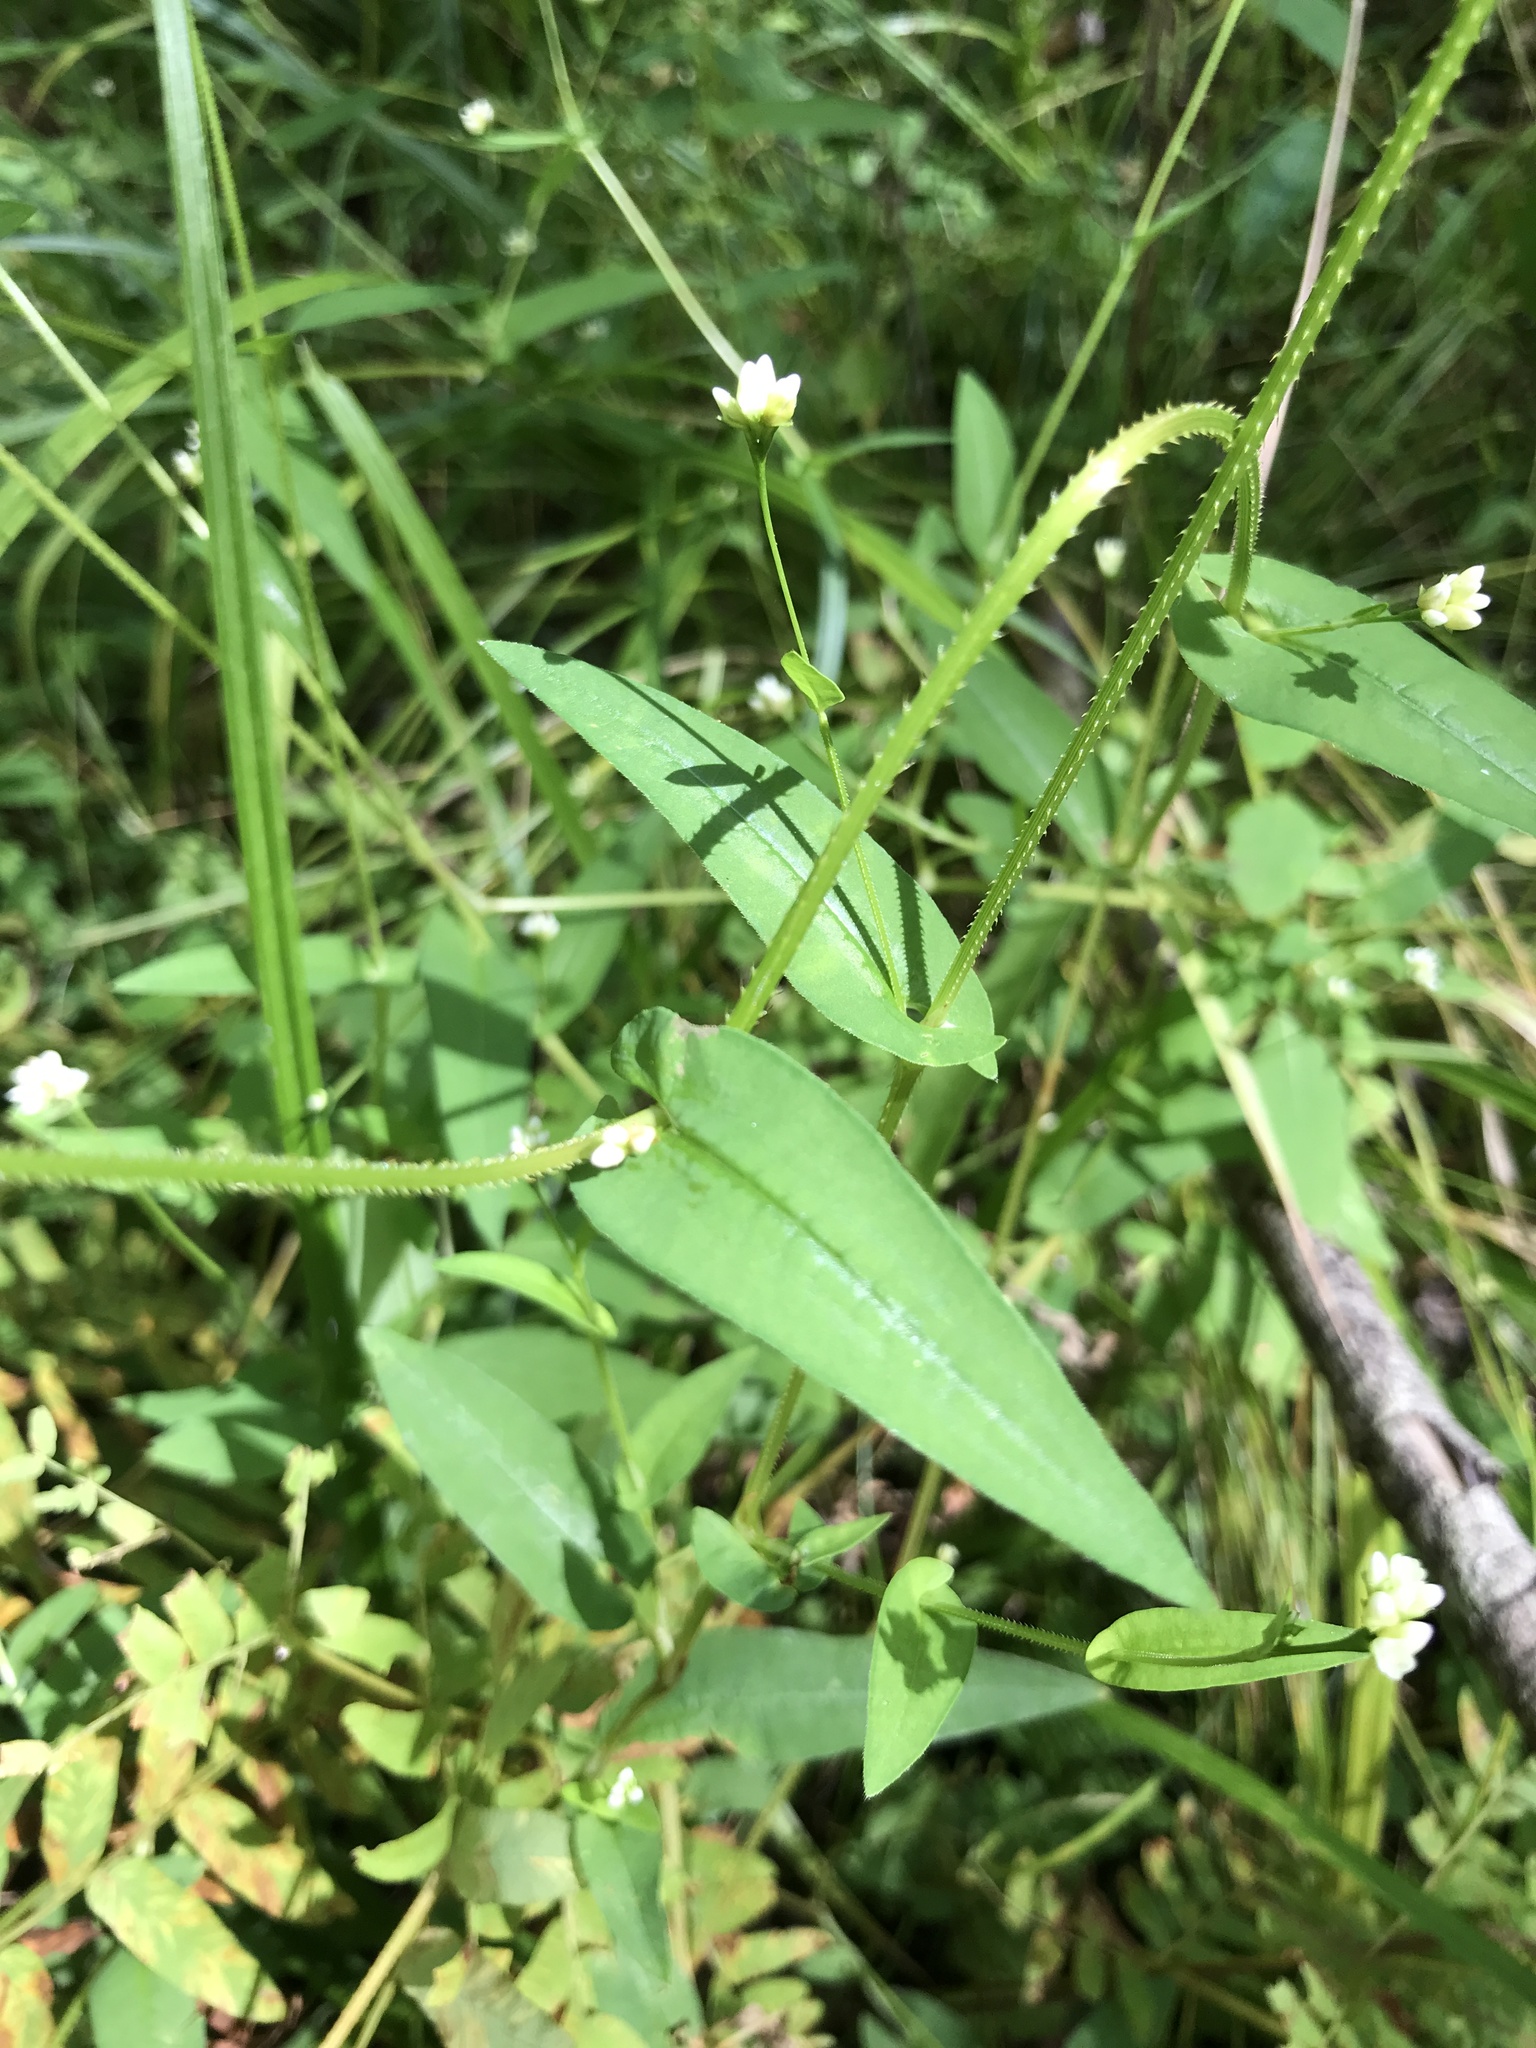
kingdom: Plantae
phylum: Tracheophyta
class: Magnoliopsida
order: Caryophyllales
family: Polygonaceae
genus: Persicaria
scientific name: Persicaria sagittata
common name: American tearthumb
